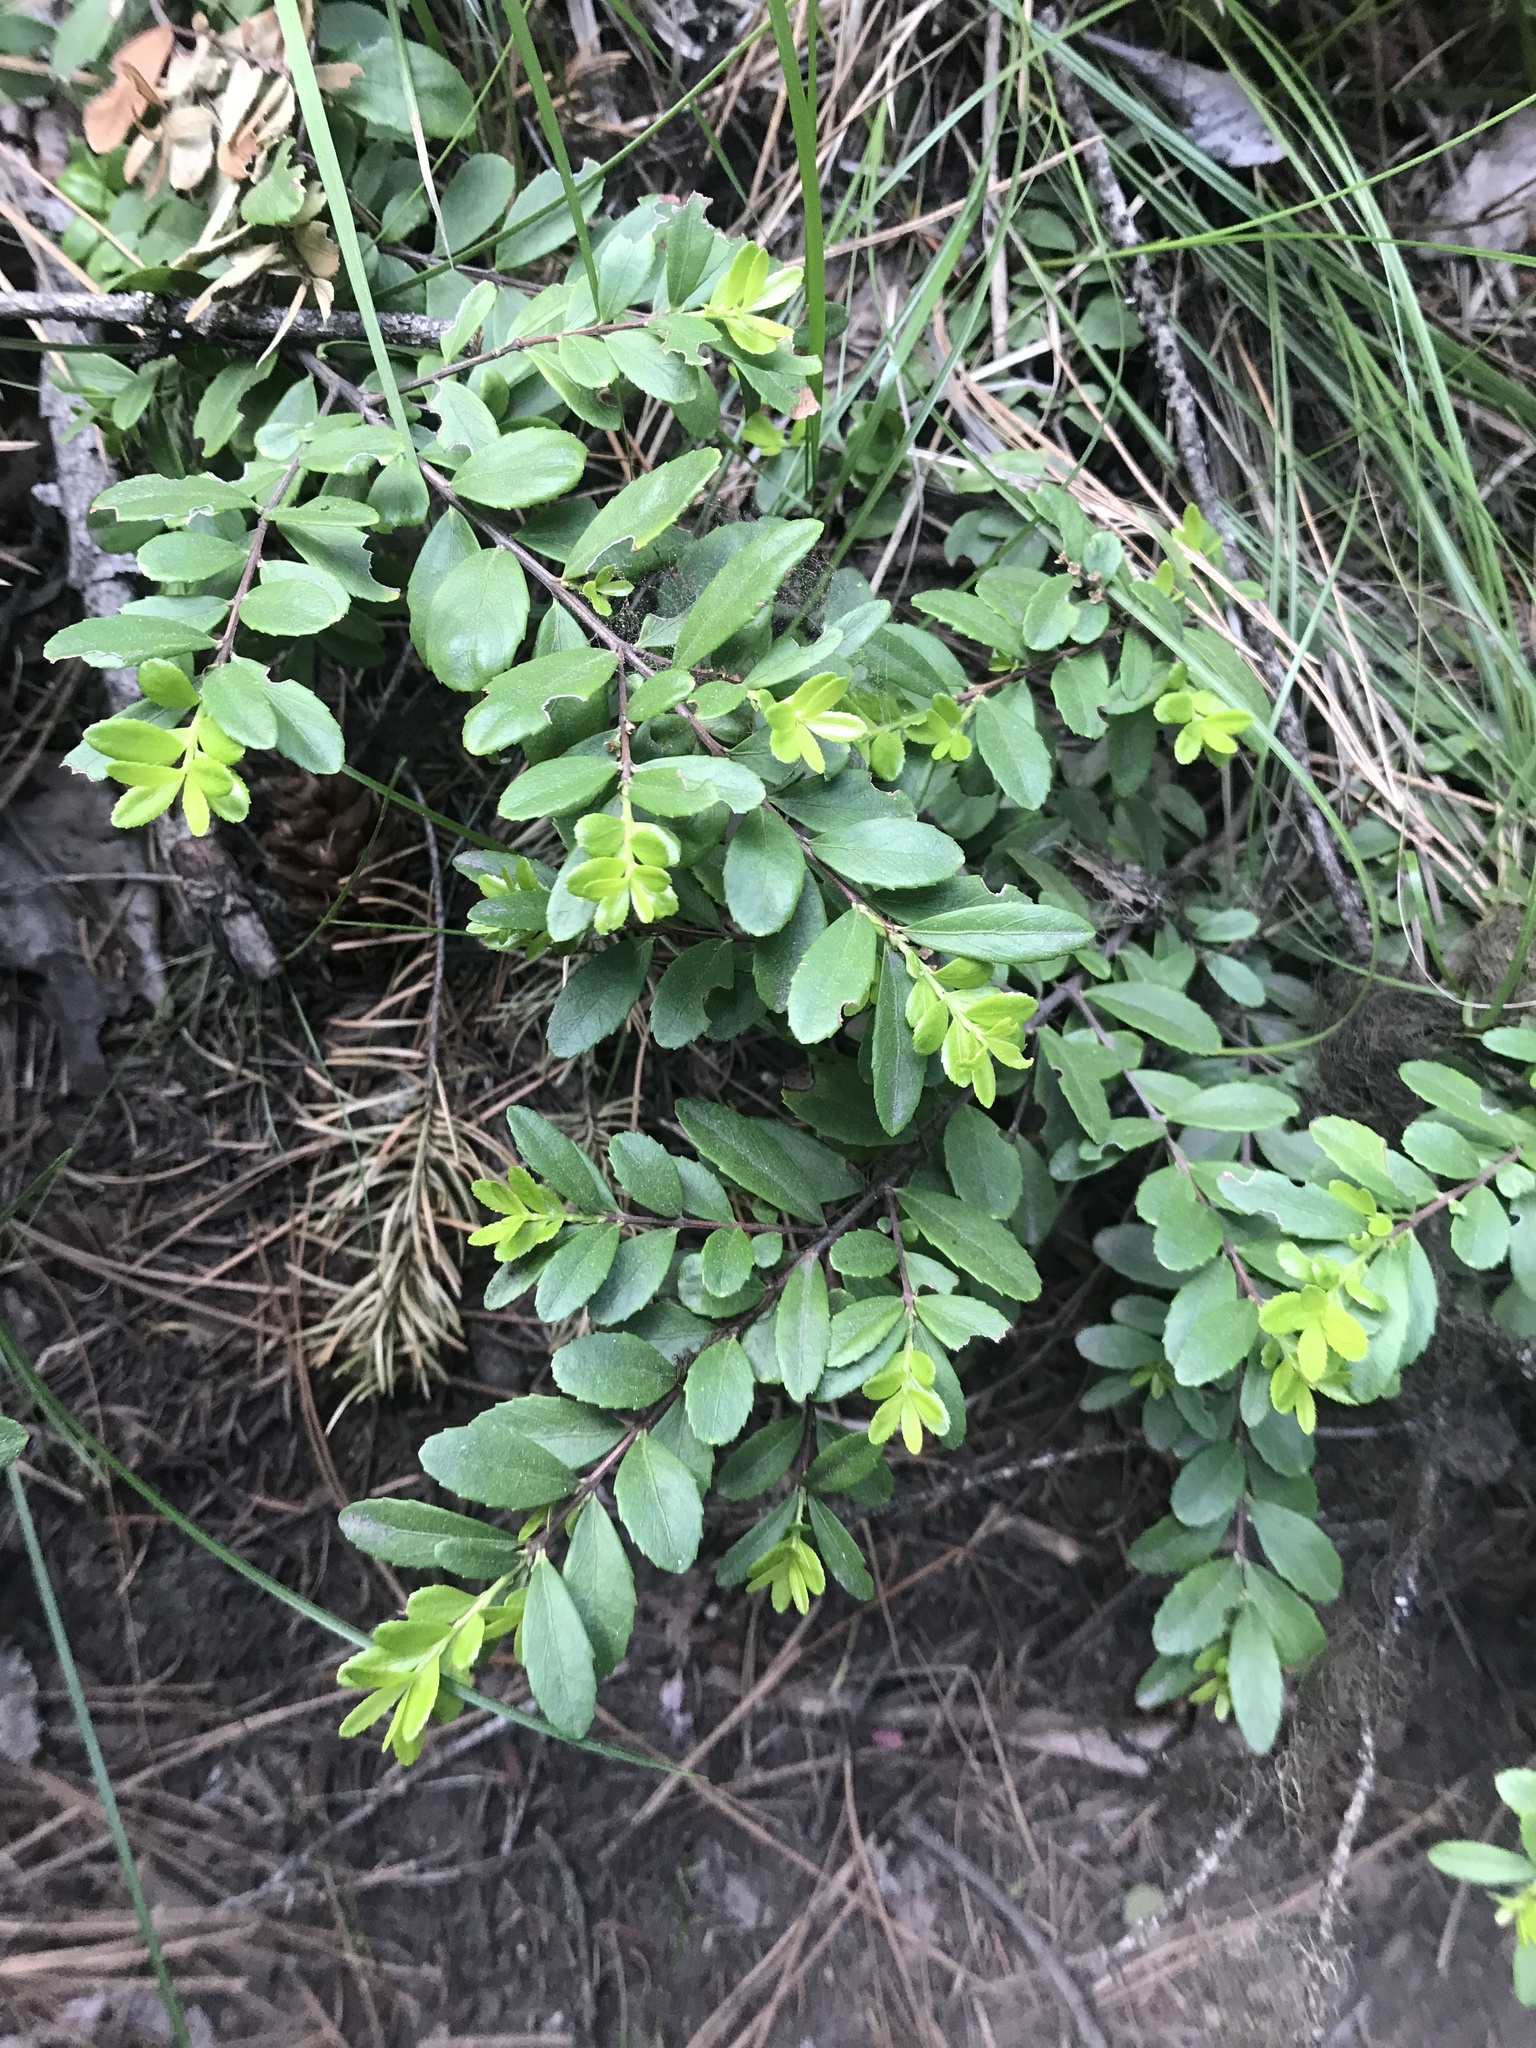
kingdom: Plantae
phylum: Tracheophyta
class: Magnoliopsida
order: Celastrales
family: Celastraceae
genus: Paxistima
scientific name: Paxistima myrsinites
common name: Mountain-lover
